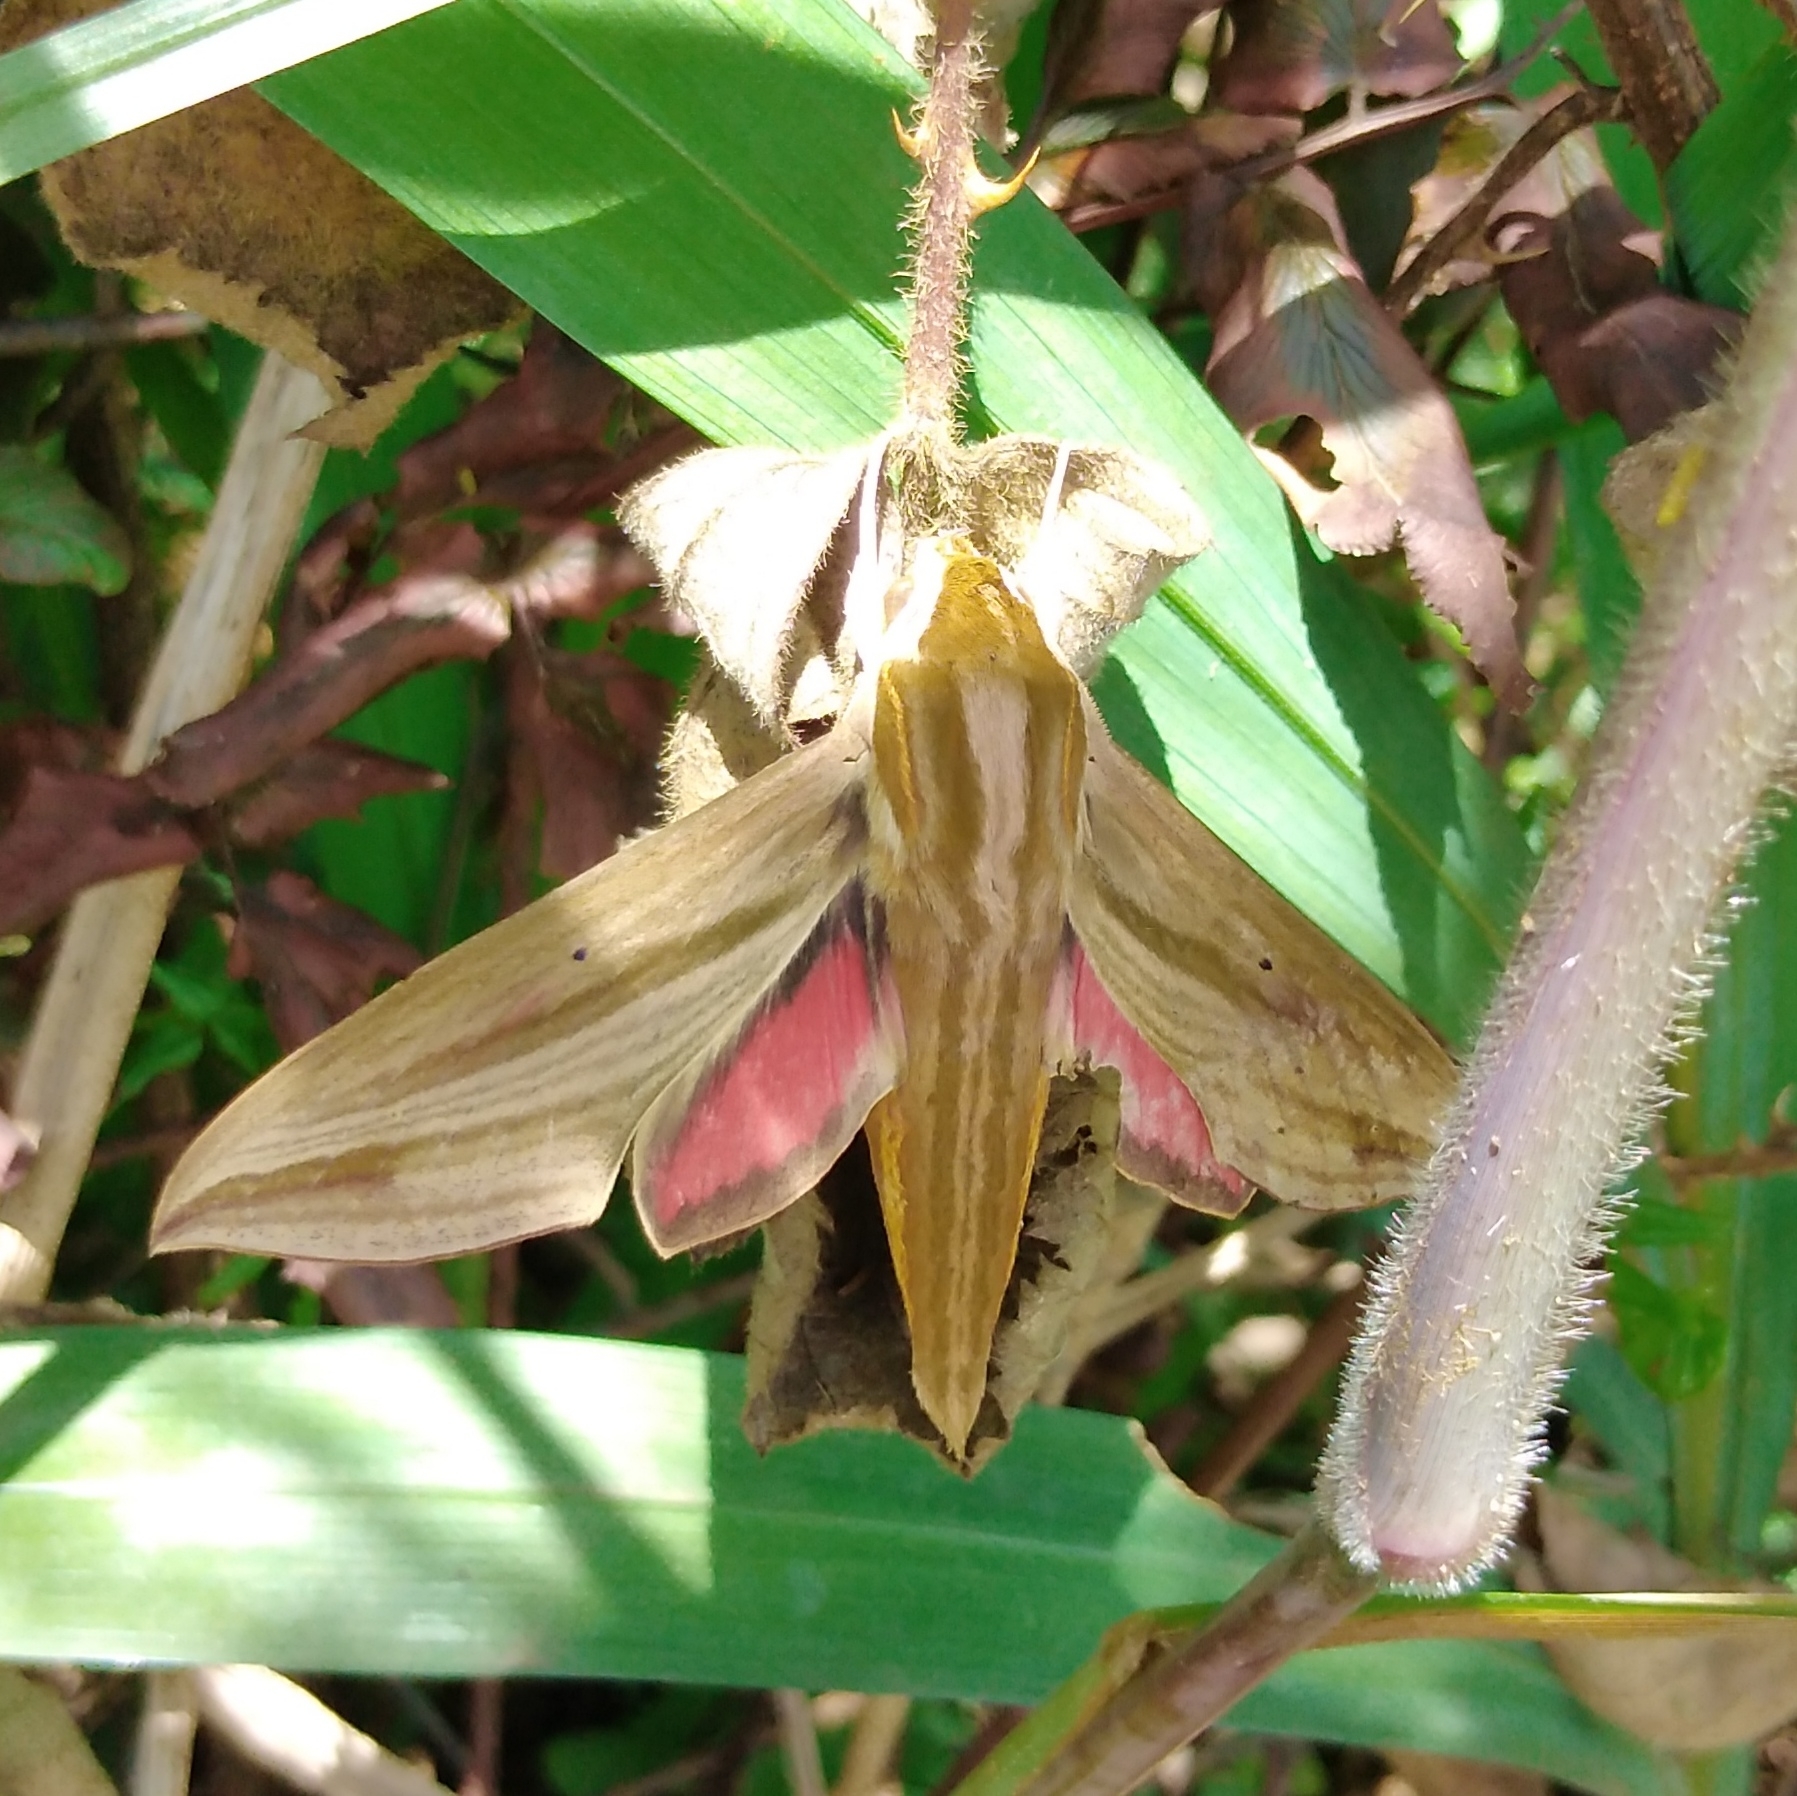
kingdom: Animalia
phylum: Arthropoda
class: Insecta
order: Lepidoptera
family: Sphingidae
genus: Hippotion
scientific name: Hippotion eson
